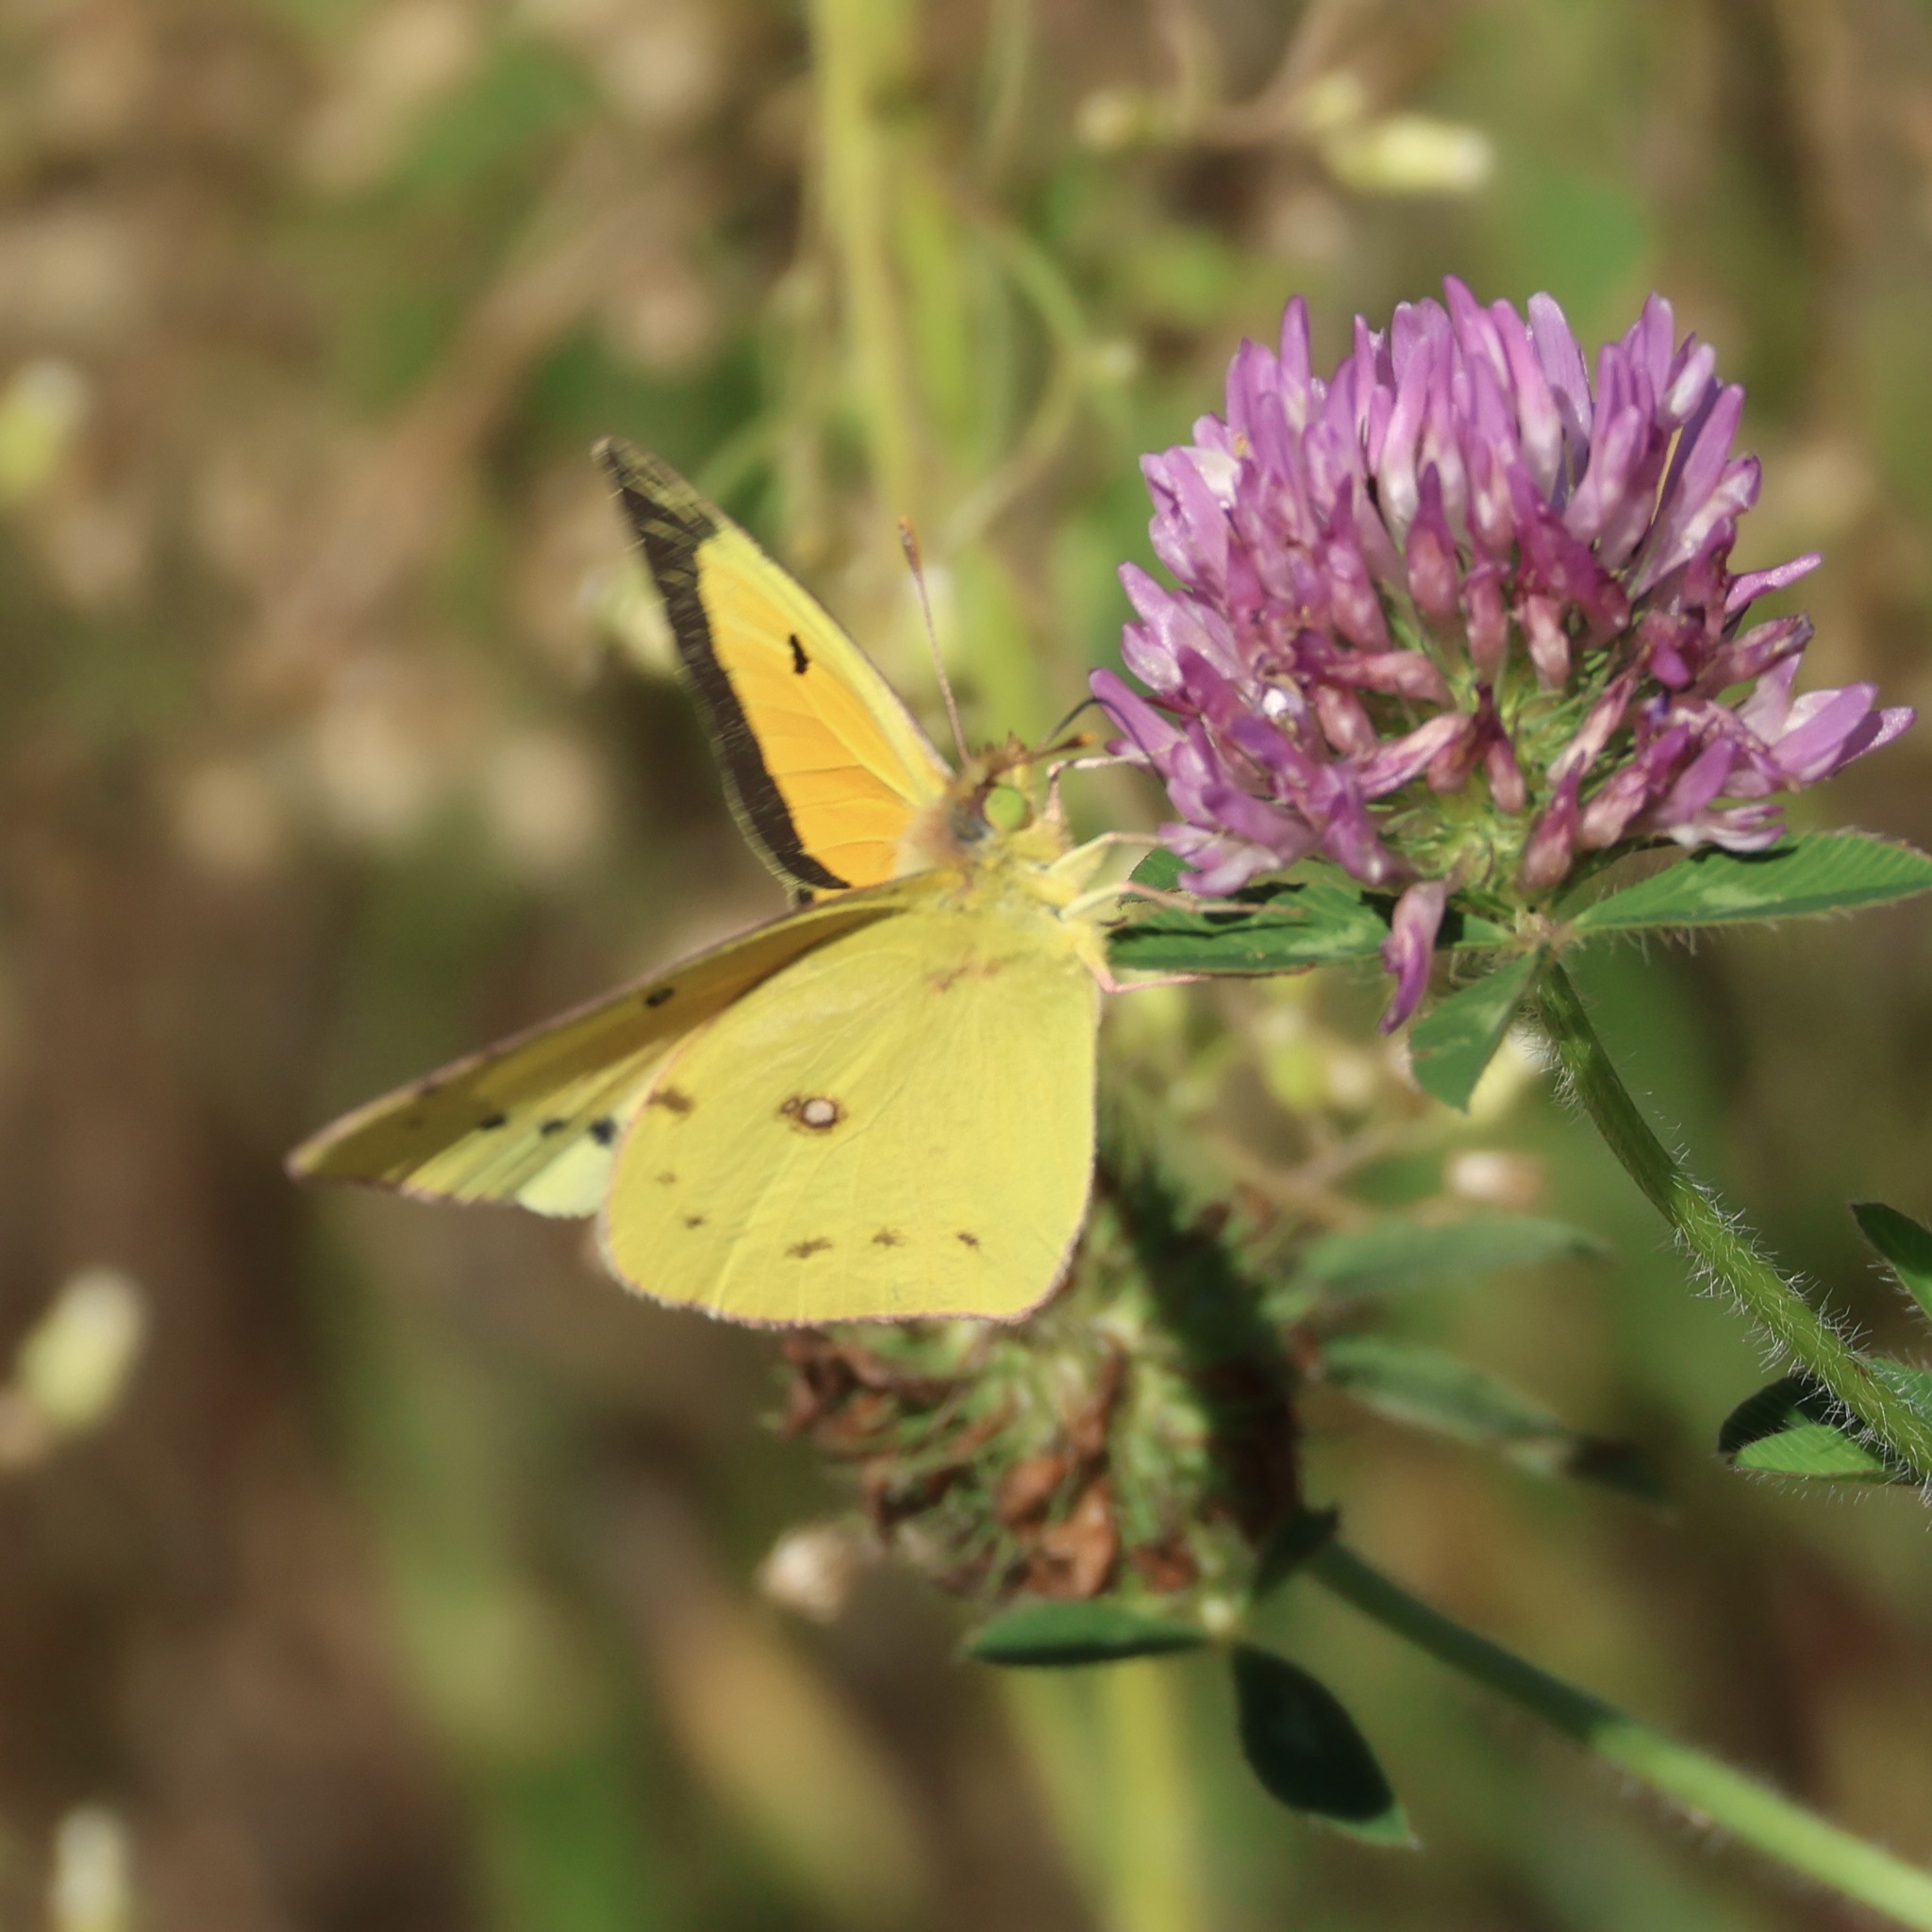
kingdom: Animalia
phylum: Arthropoda
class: Insecta
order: Lepidoptera
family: Pieridae
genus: Colias
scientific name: Colias eurytheme
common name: Alfalfa butterfly
